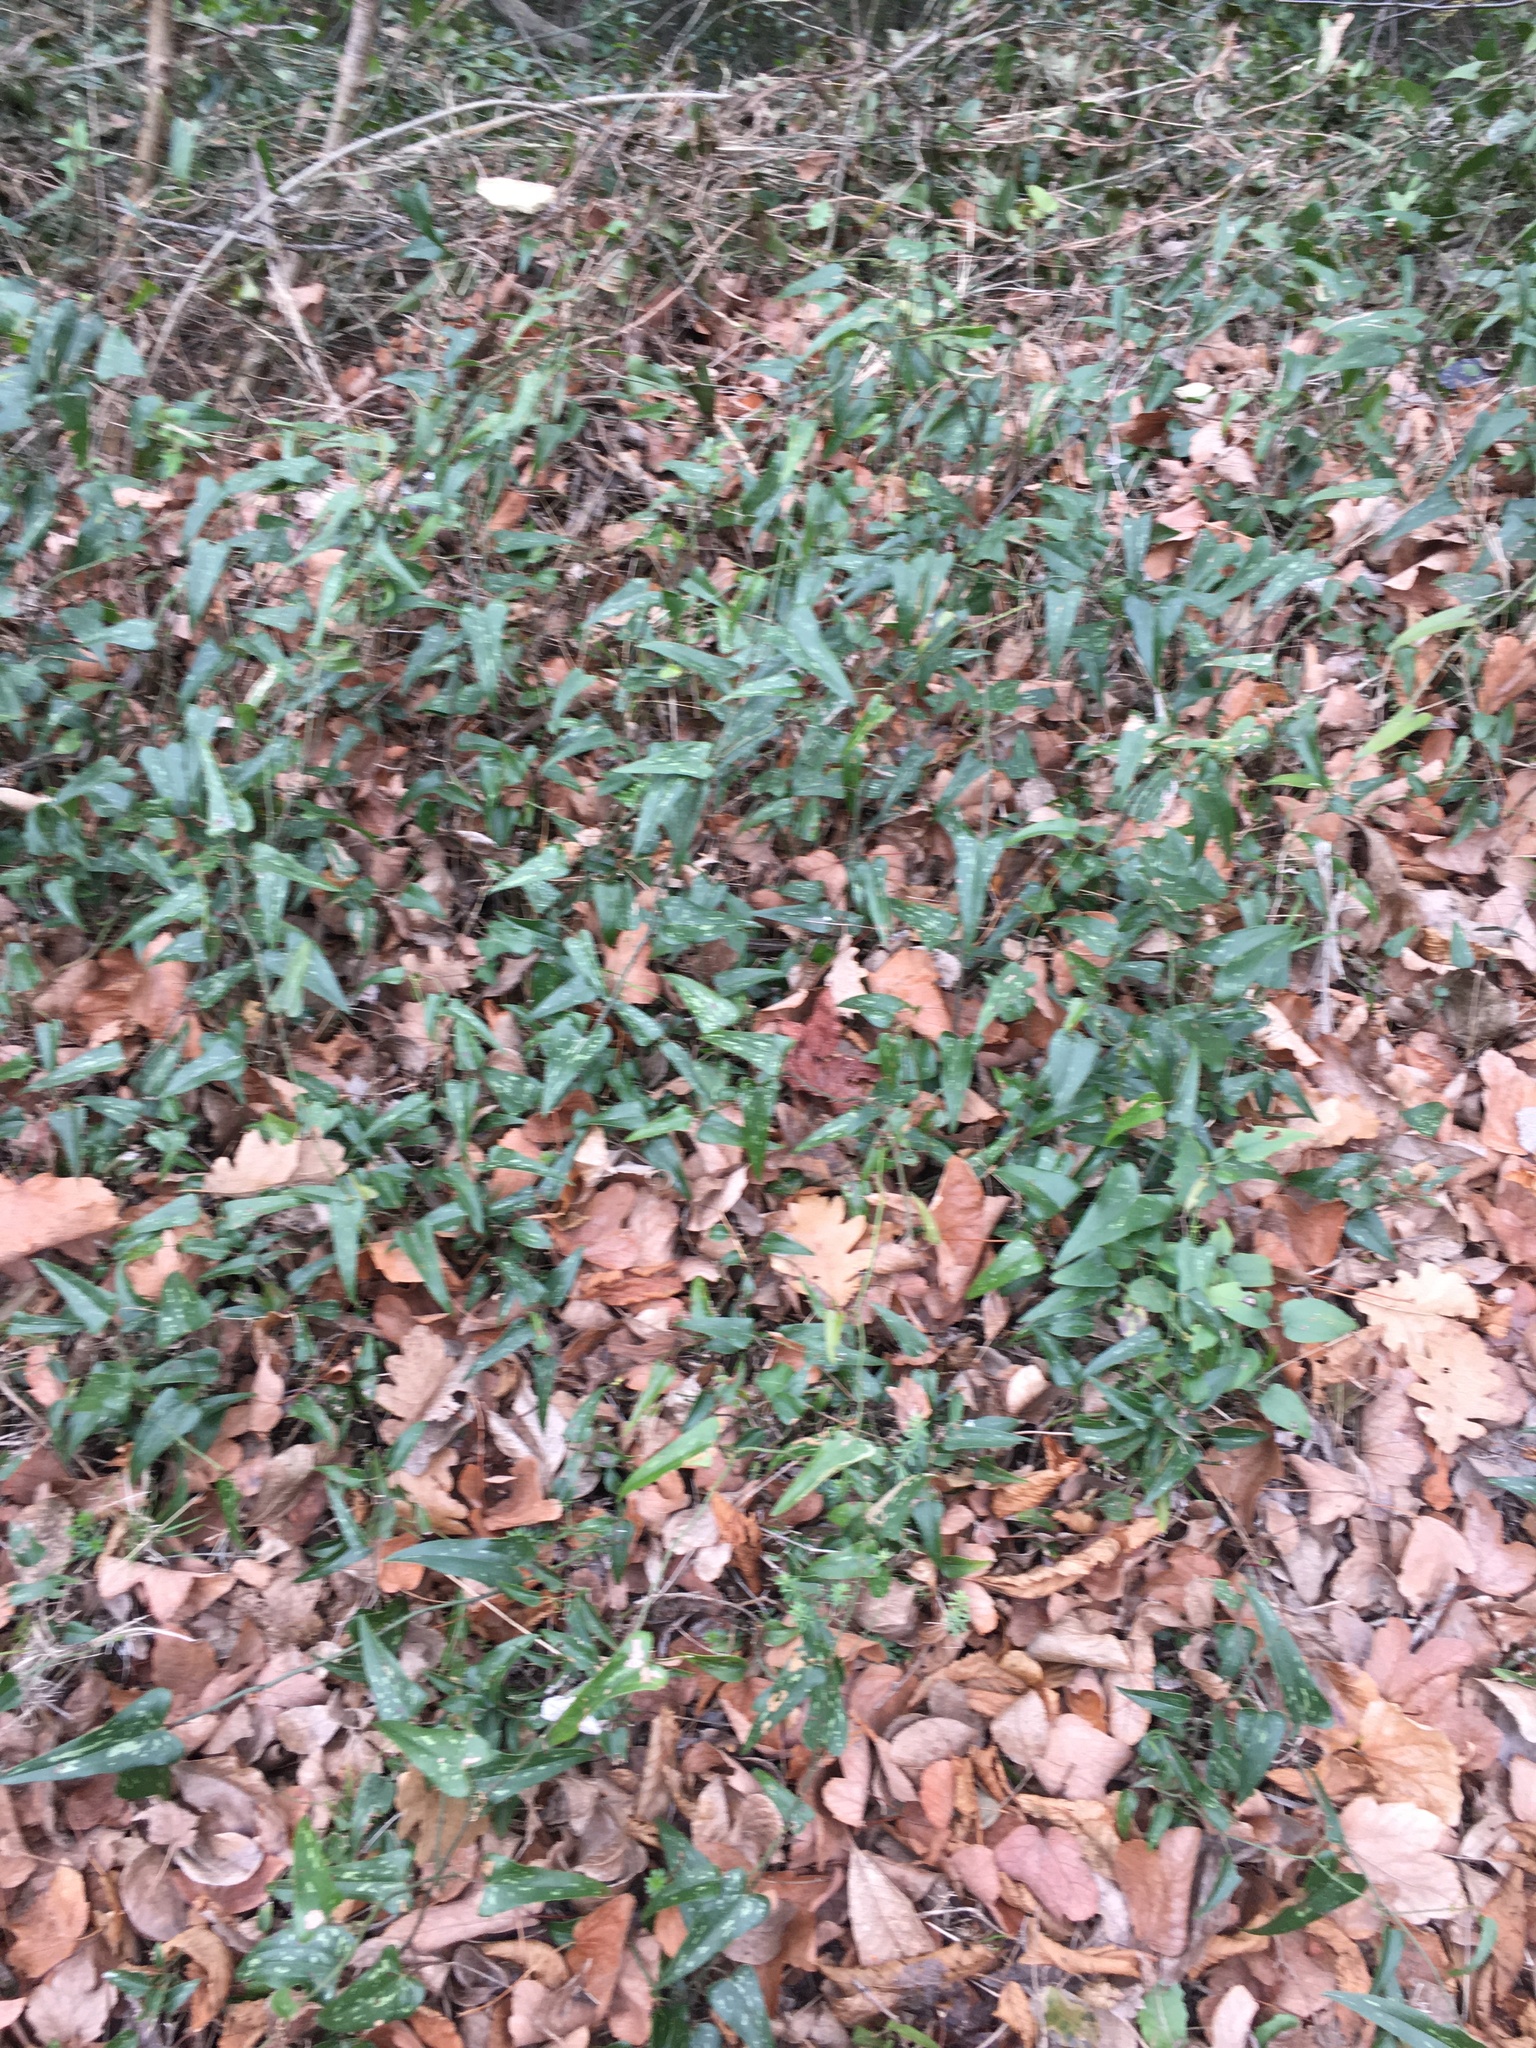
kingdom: Plantae
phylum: Tracheophyta
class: Liliopsida
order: Liliales
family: Smilacaceae
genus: Smilax
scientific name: Smilax aspera
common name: Common smilax
